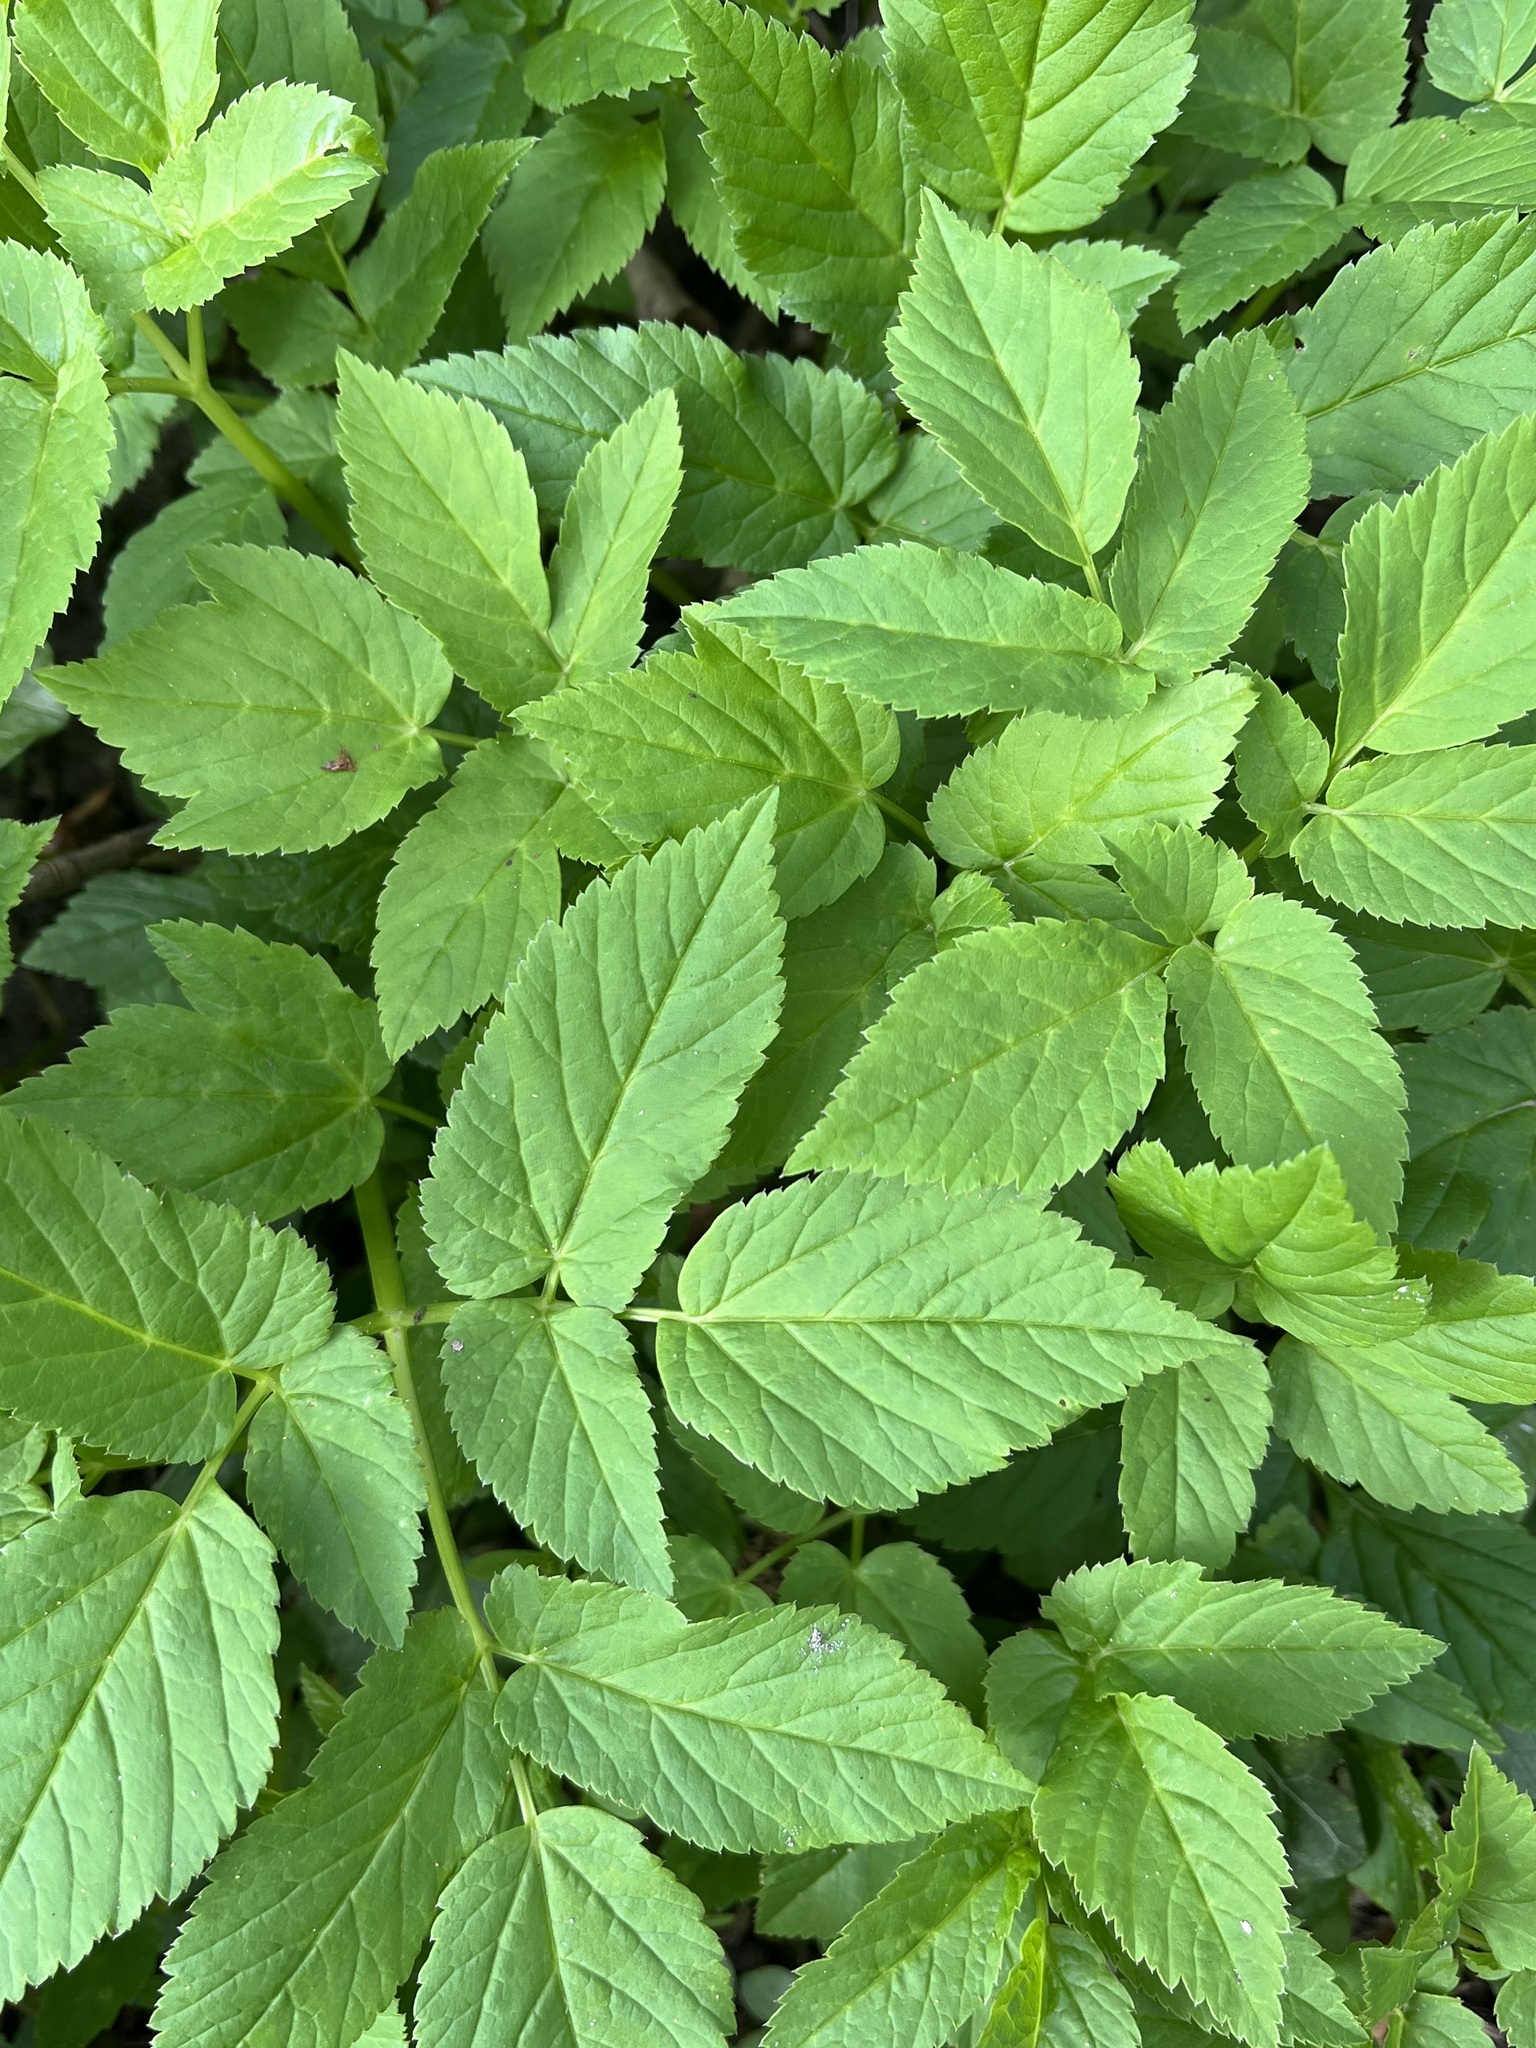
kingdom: Plantae
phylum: Tracheophyta
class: Magnoliopsida
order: Apiales
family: Apiaceae
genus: Aegopodium
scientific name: Aegopodium podagraria
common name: Ground-elder
